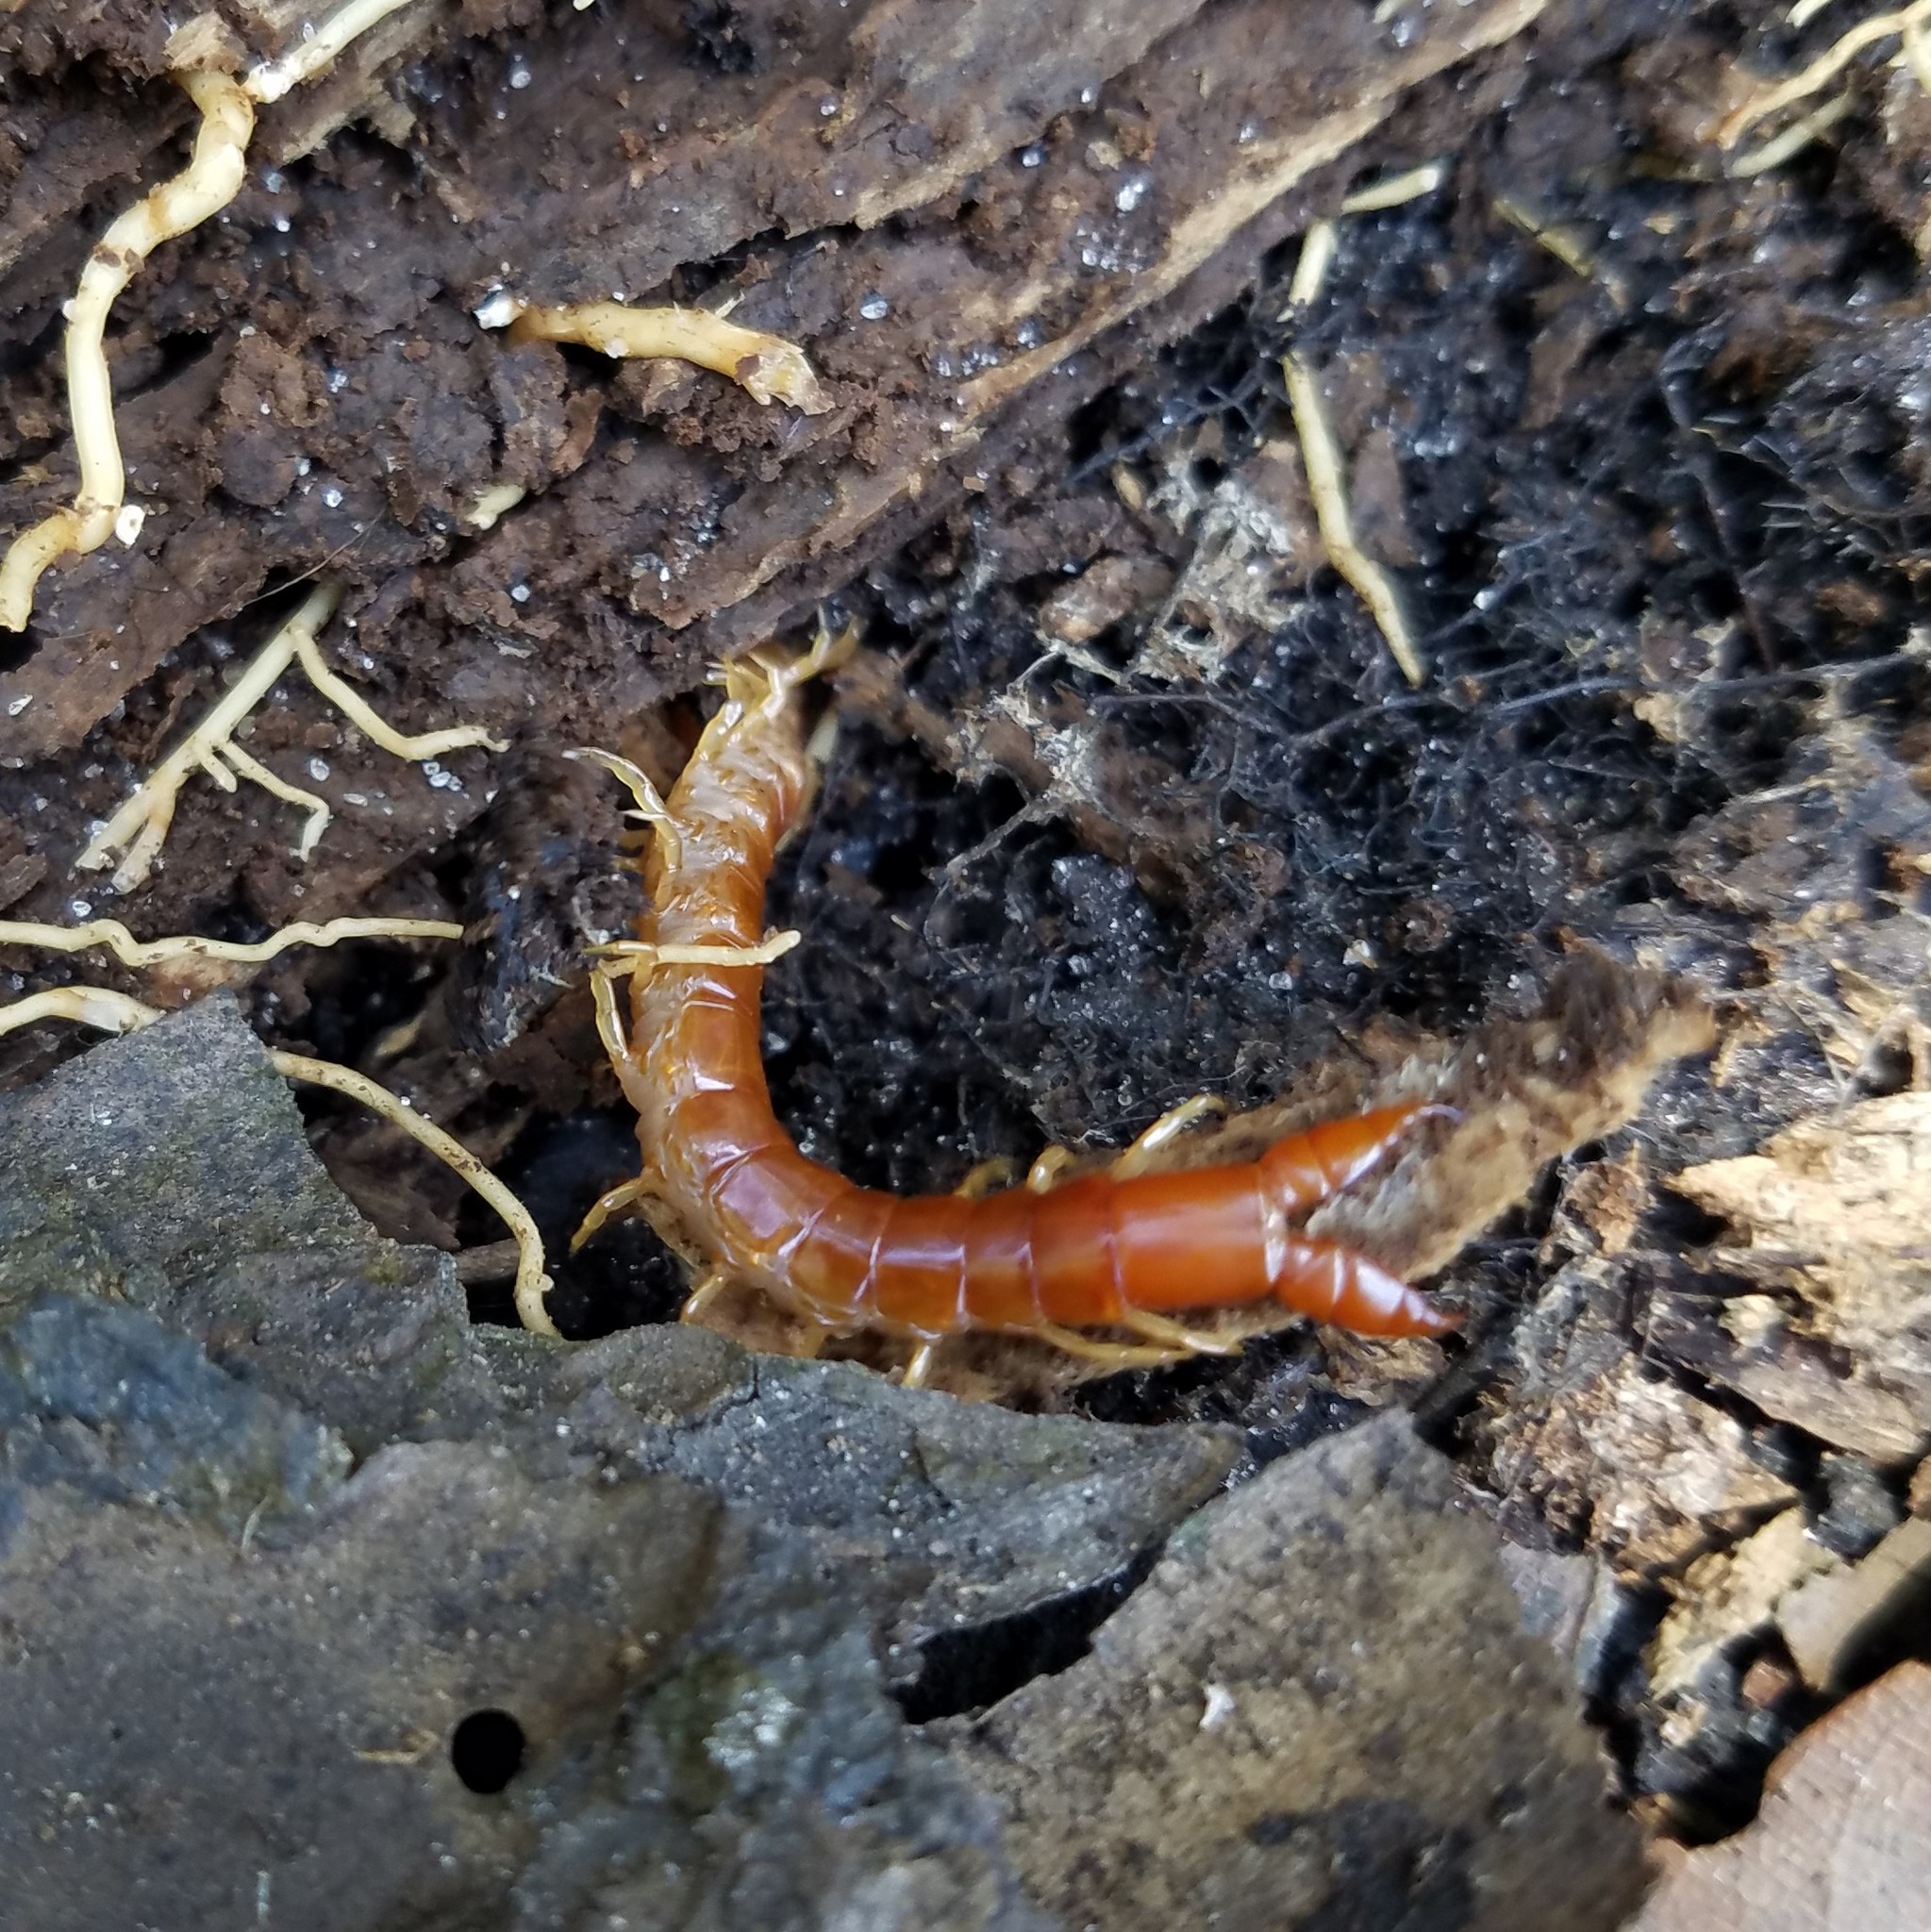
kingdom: Animalia
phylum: Arthropoda
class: Chilopoda
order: Scolopendromorpha
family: Cryptopidae
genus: Theatops
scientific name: Theatops posticus
